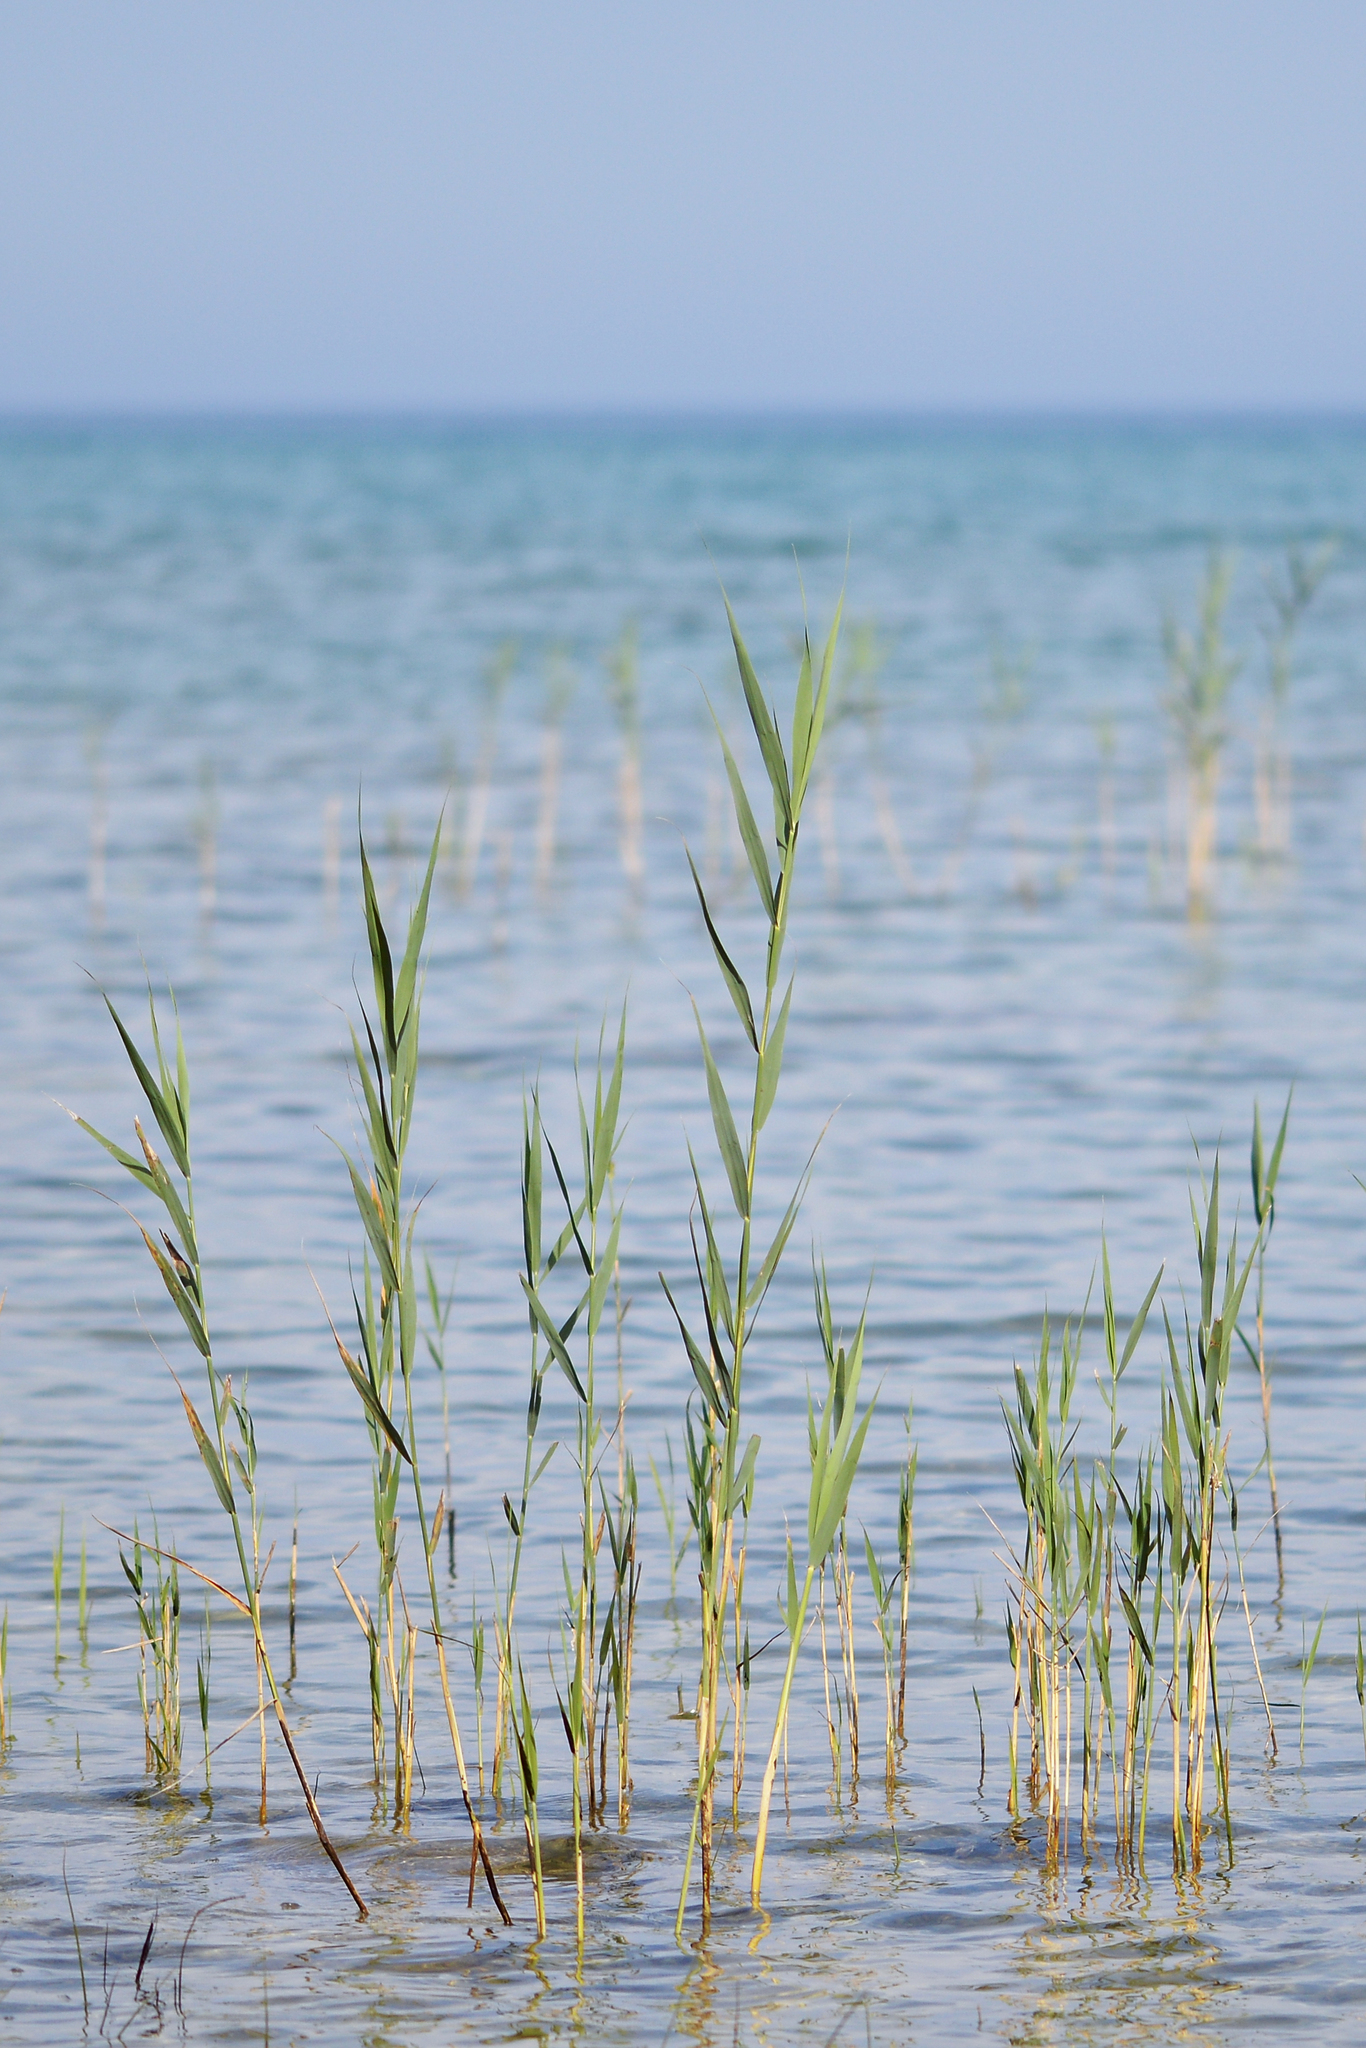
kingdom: Plantae
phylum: Tracheophyta
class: Liliopsida
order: Poales
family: Poaceae
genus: Phragmites
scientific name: Phragmites australis
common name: Common reed
